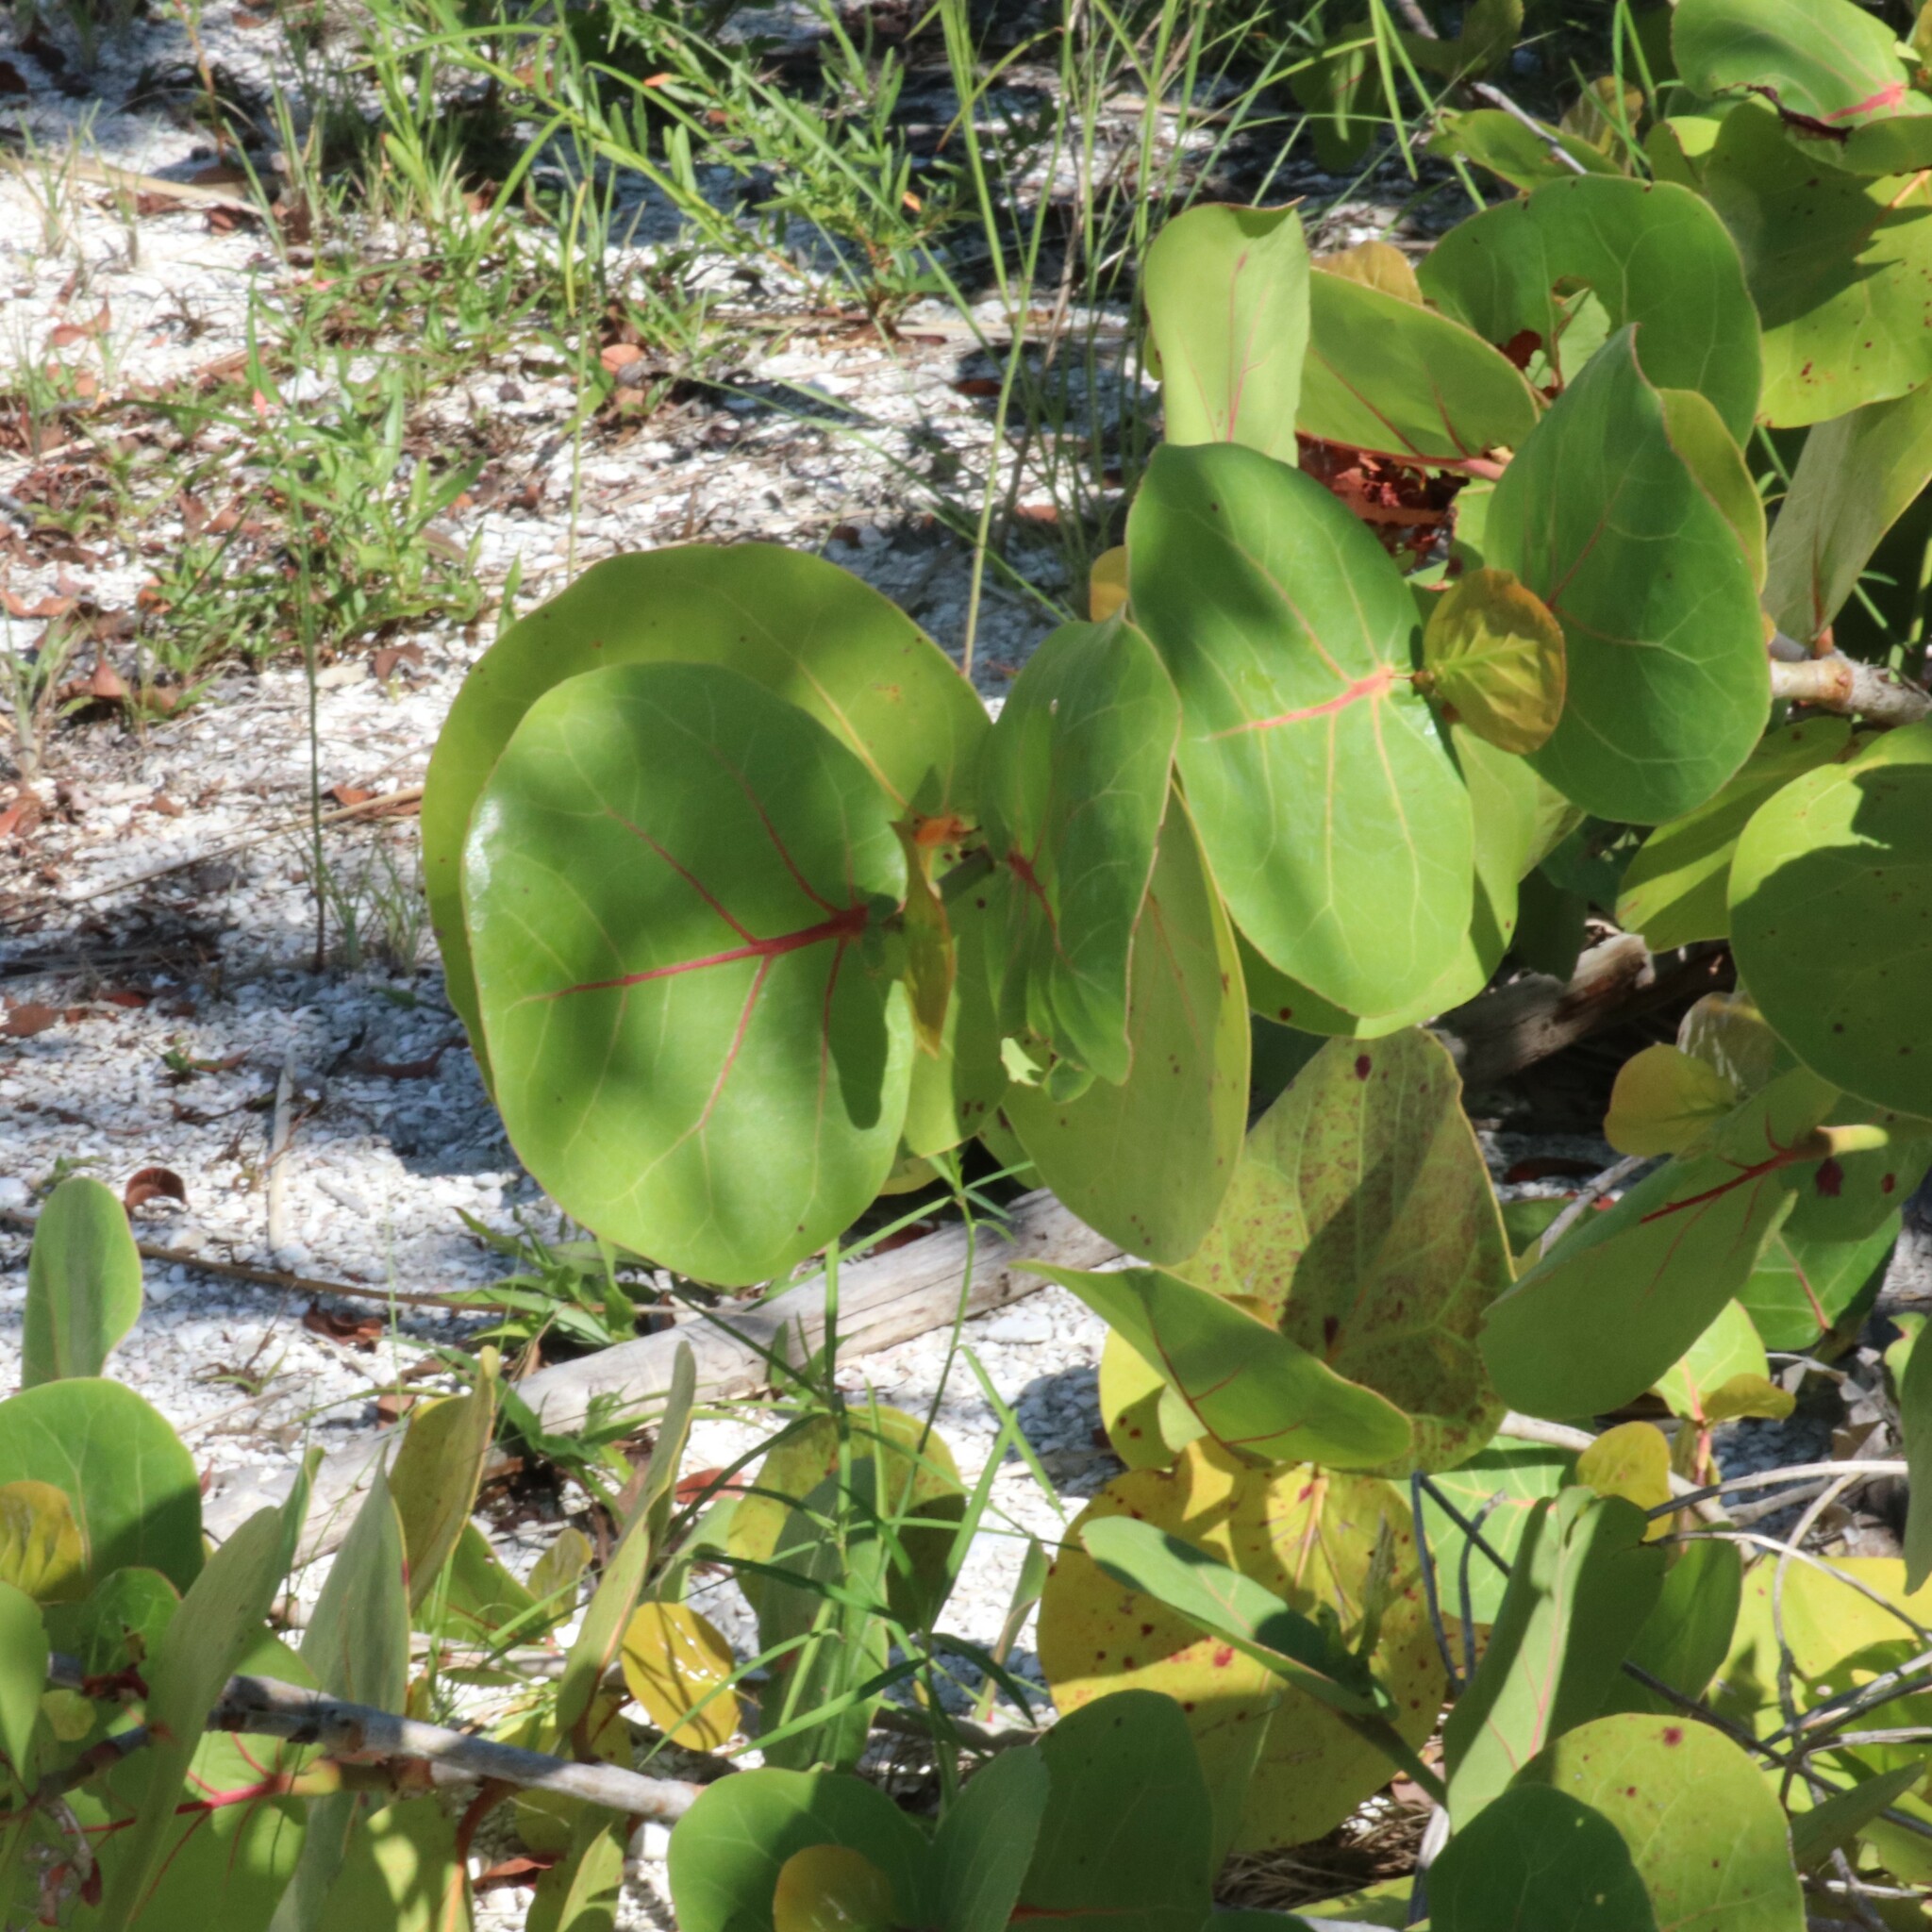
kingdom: Plantae
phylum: Tracheophyta
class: Magnoliopsida
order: Caryophyllales
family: Polygonaceae
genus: Coccoloba
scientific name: Coccoloba uvifera
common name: Seagrape
